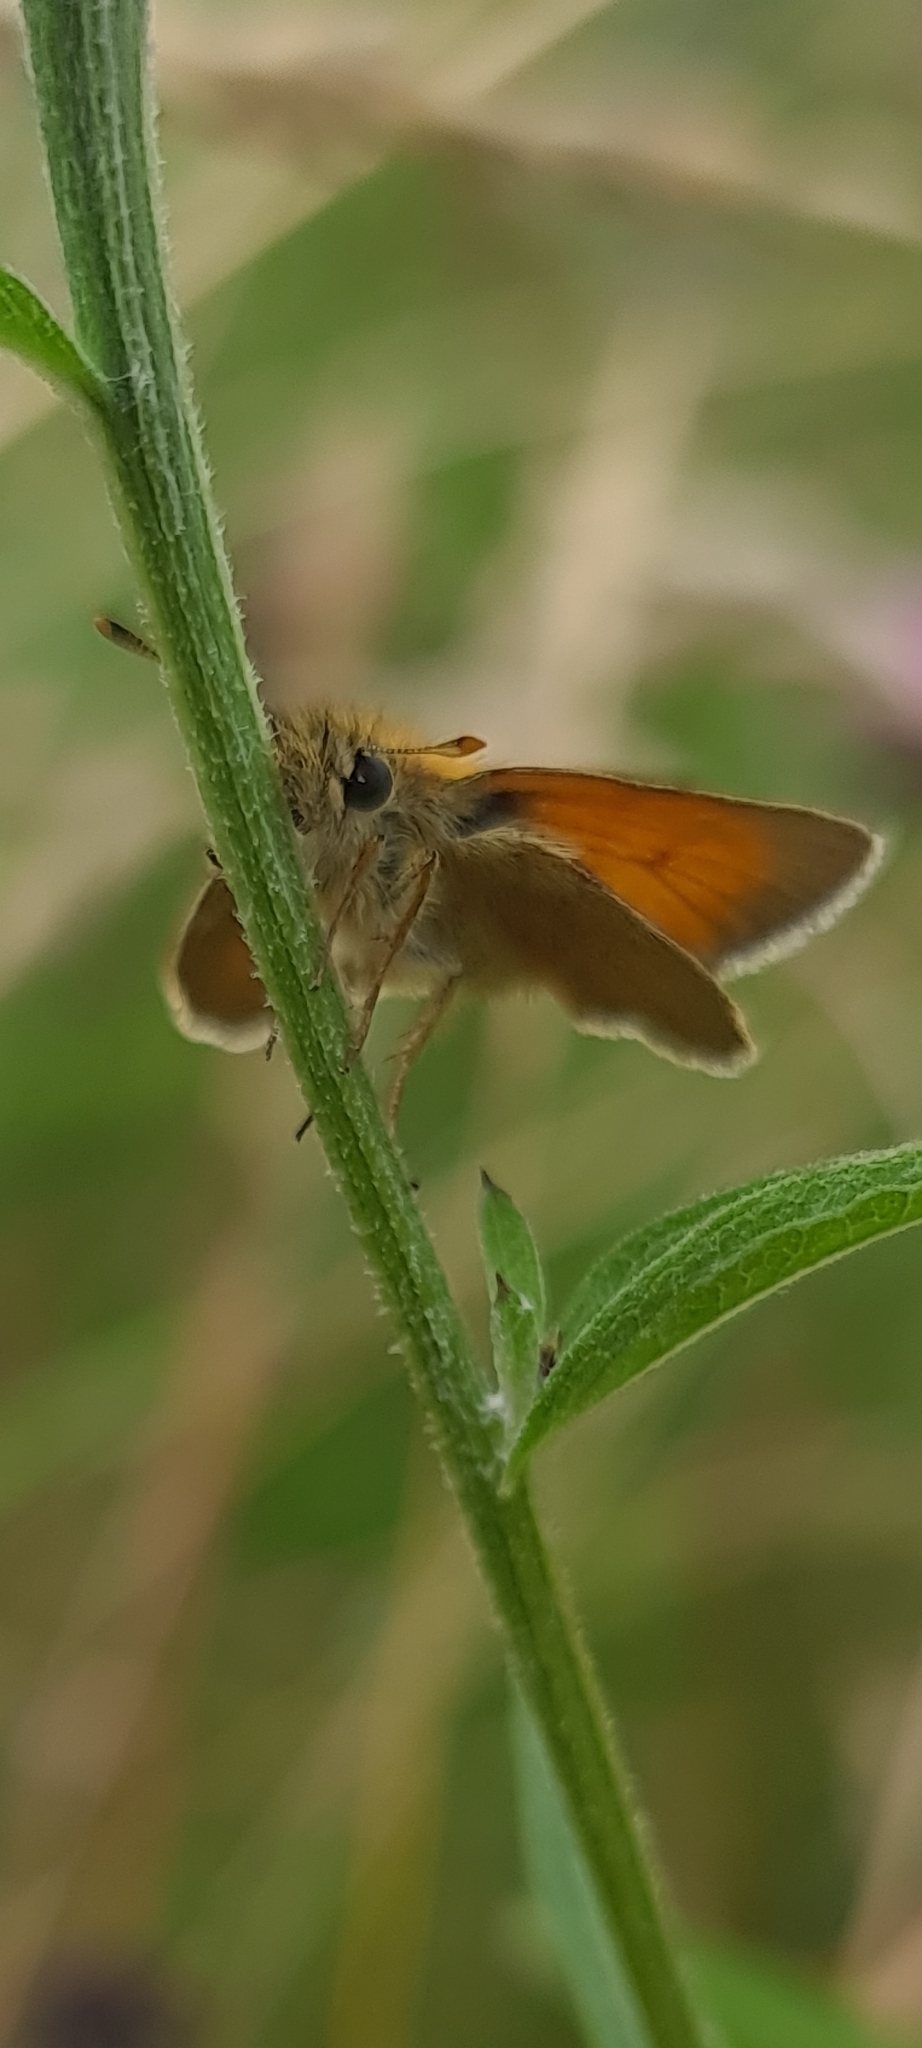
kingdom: Animalia
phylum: Arthropoda
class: Insecta
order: Lepidoptera
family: Hesperiidae
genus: Thymelicus
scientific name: Thymelicus sylvestris
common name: Small skipper
